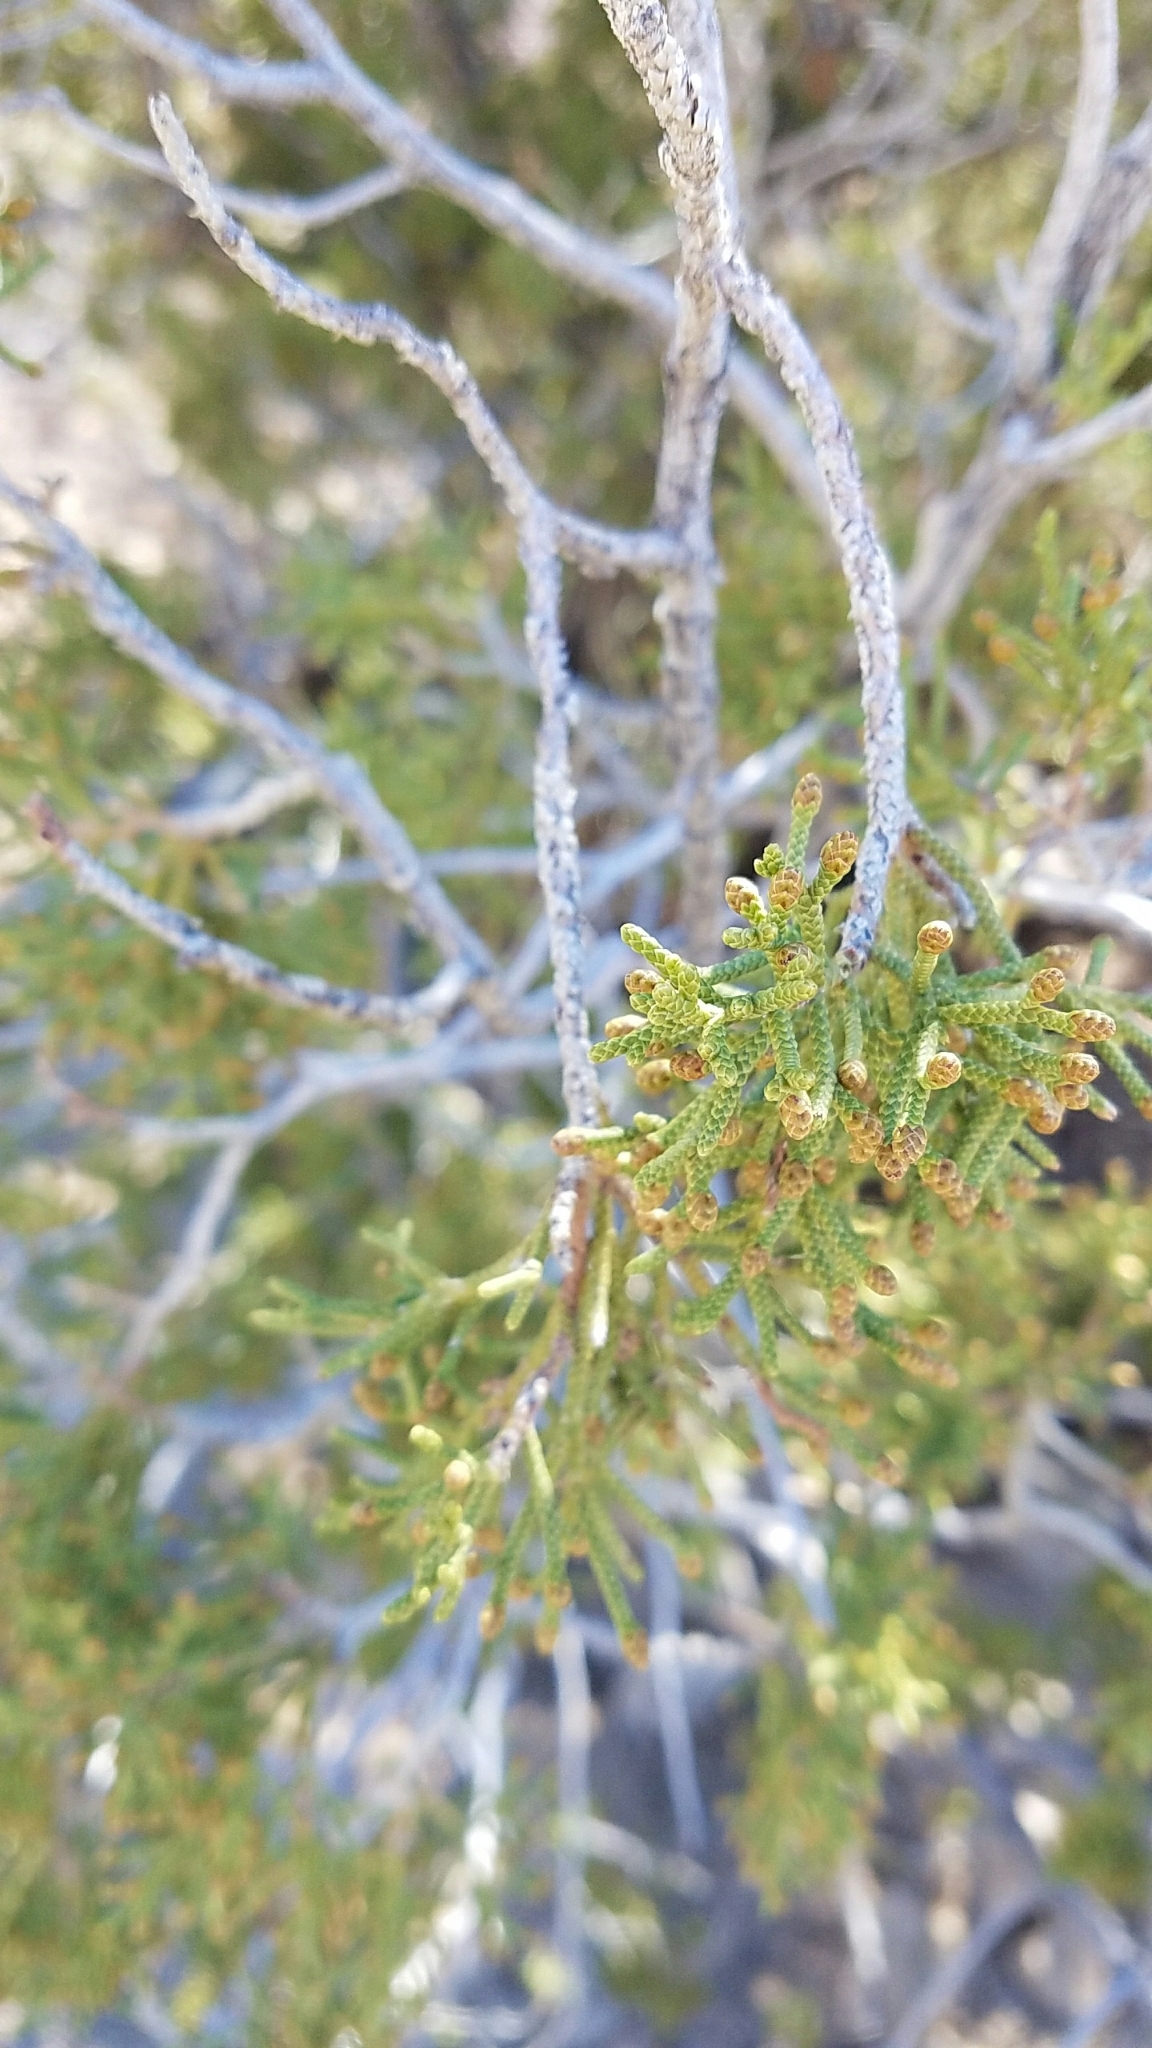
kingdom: Plantae
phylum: Tracheophyta
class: Pinopsida
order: Pinales
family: Cupressaceae
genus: Juniperus
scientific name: Juniperus californica
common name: California juniper
